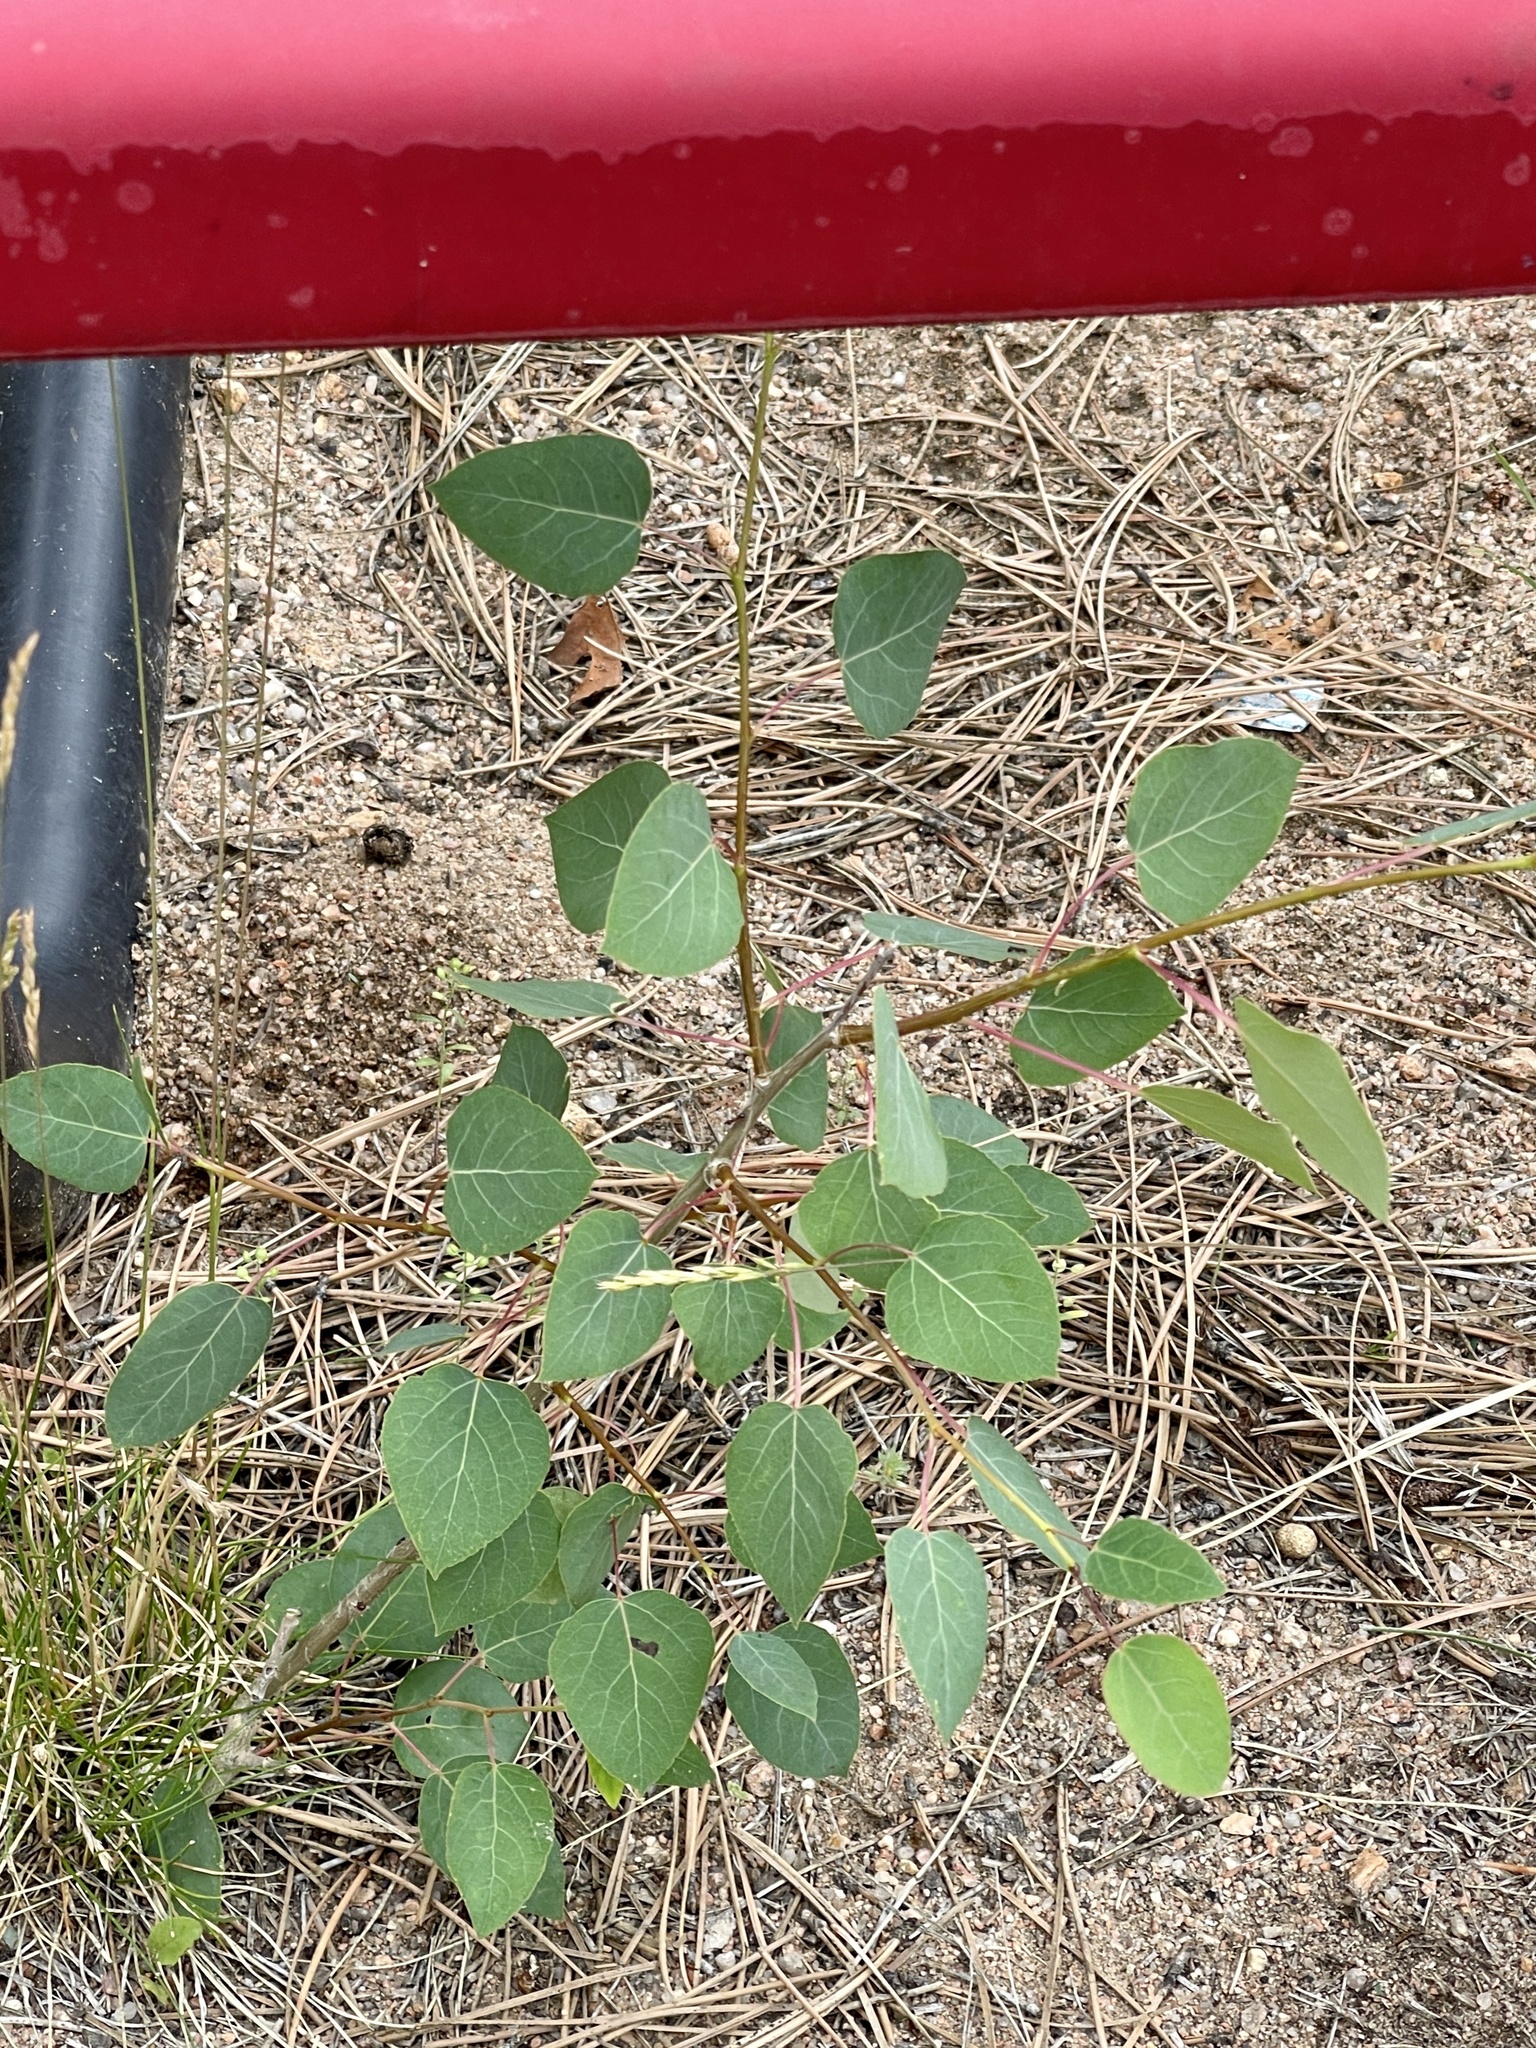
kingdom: Plantae
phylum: Tracheophyta
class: Magnoliopsida
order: Malpighiales
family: Salicaceae
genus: Populus
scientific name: Populus tremuloides
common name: Quaking aspen
